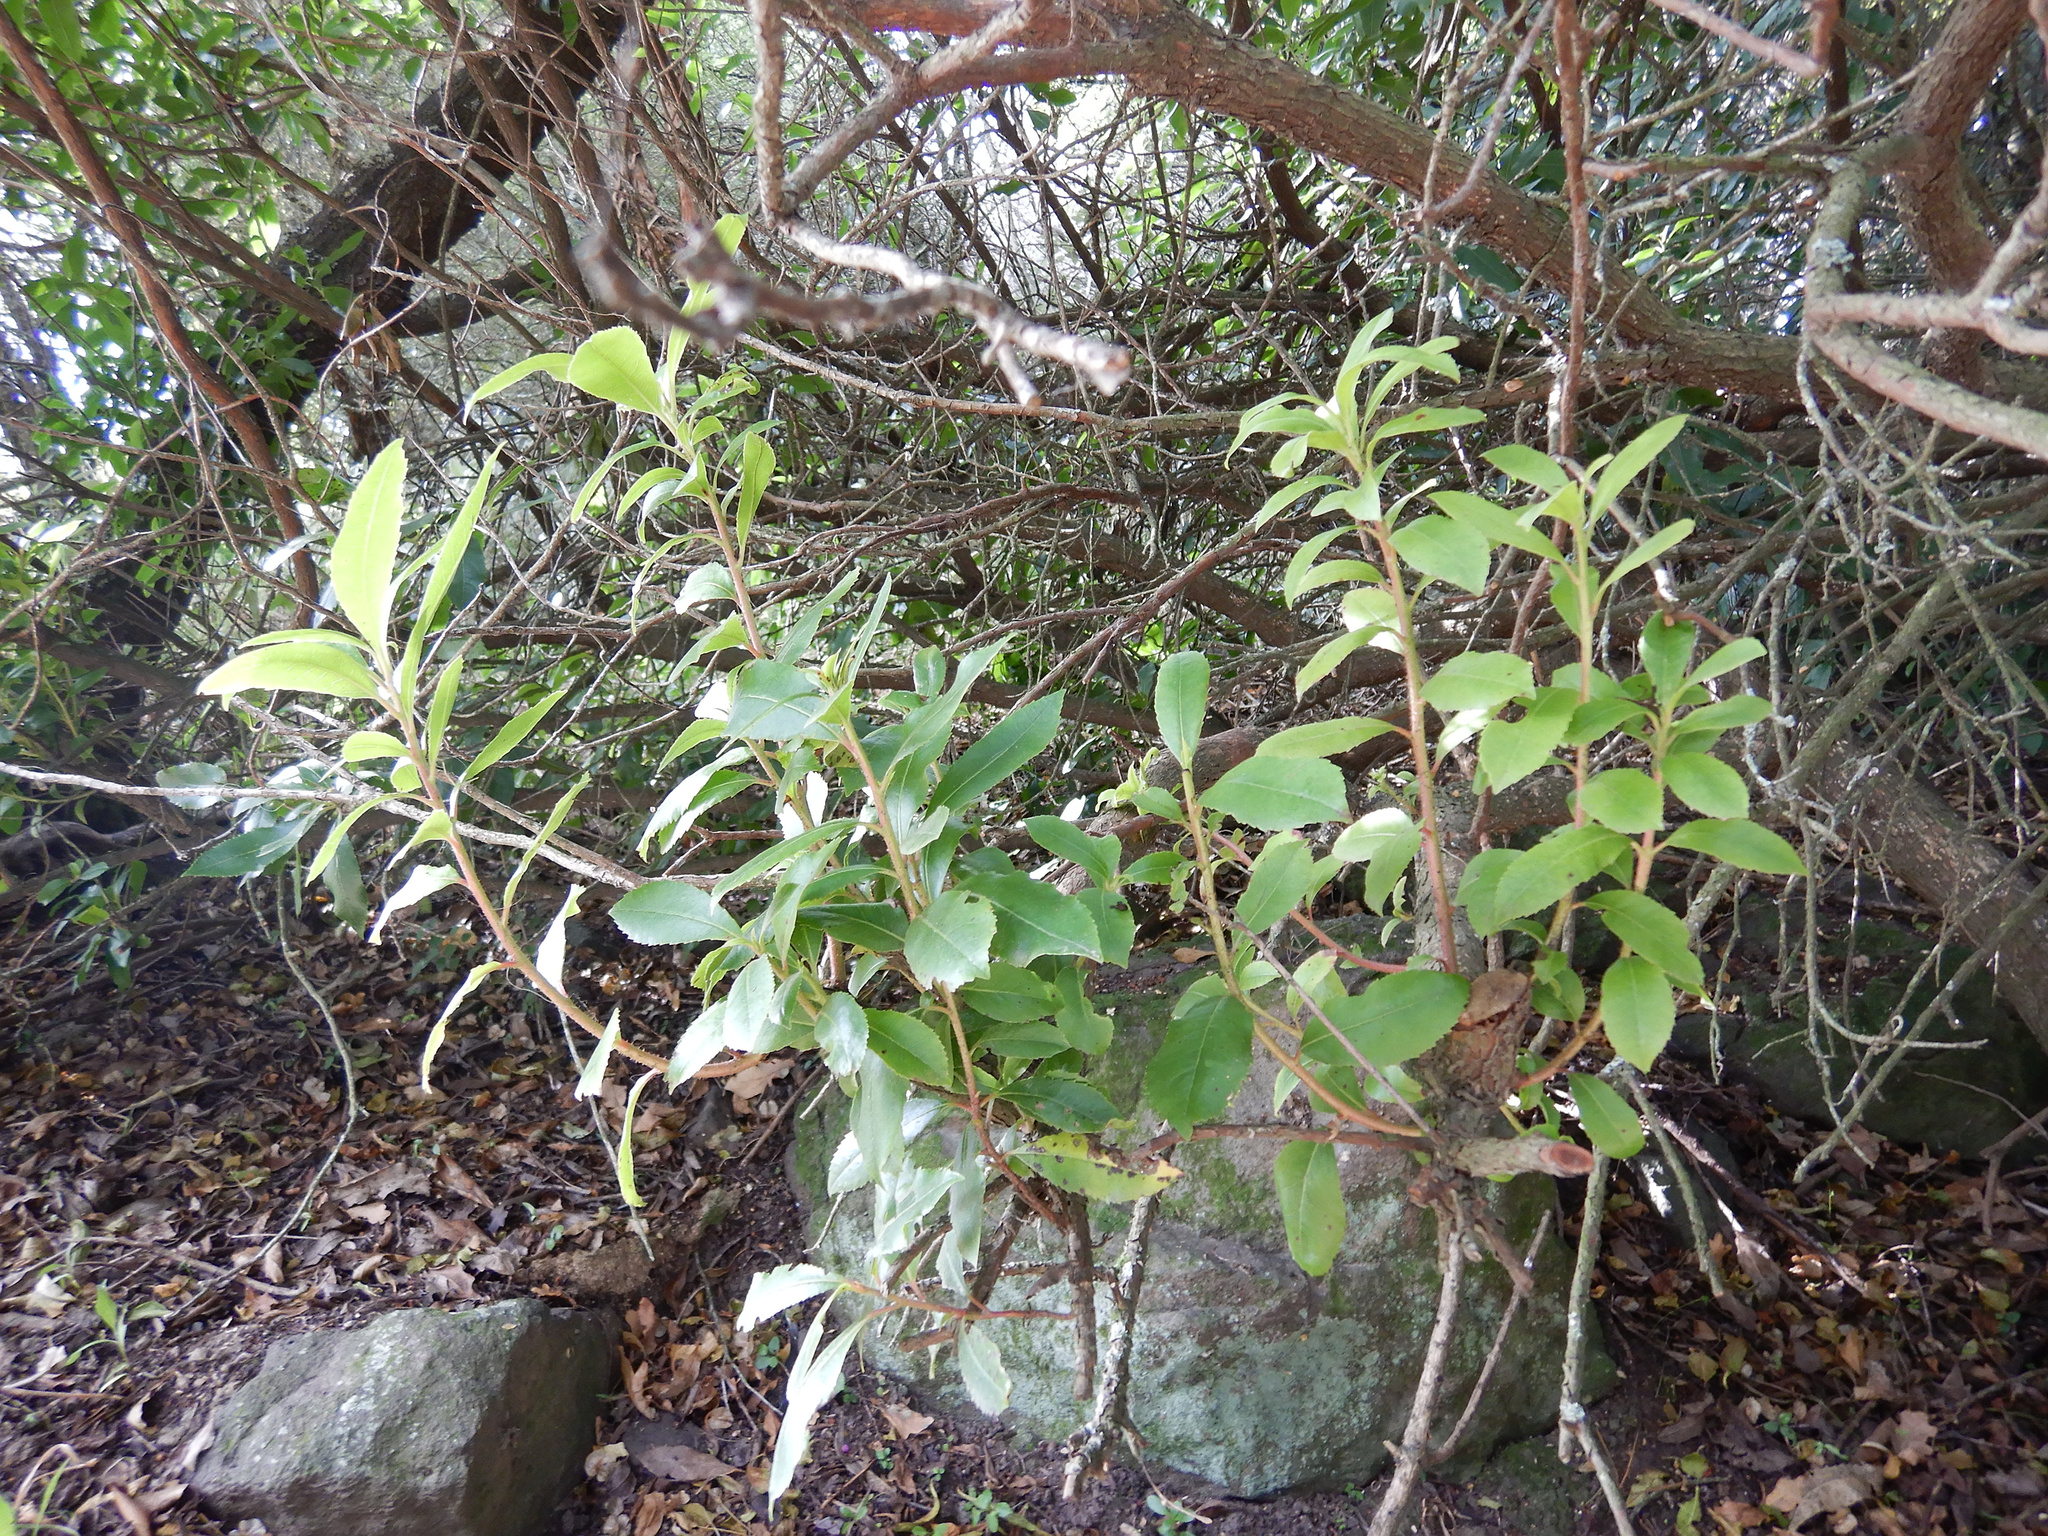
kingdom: Plantae
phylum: Tracheophyta
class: Magnoliopsida
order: Ericales
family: Ericaceae
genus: Arbutus
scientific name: Arbutus unedo
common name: Strawberry-tree
